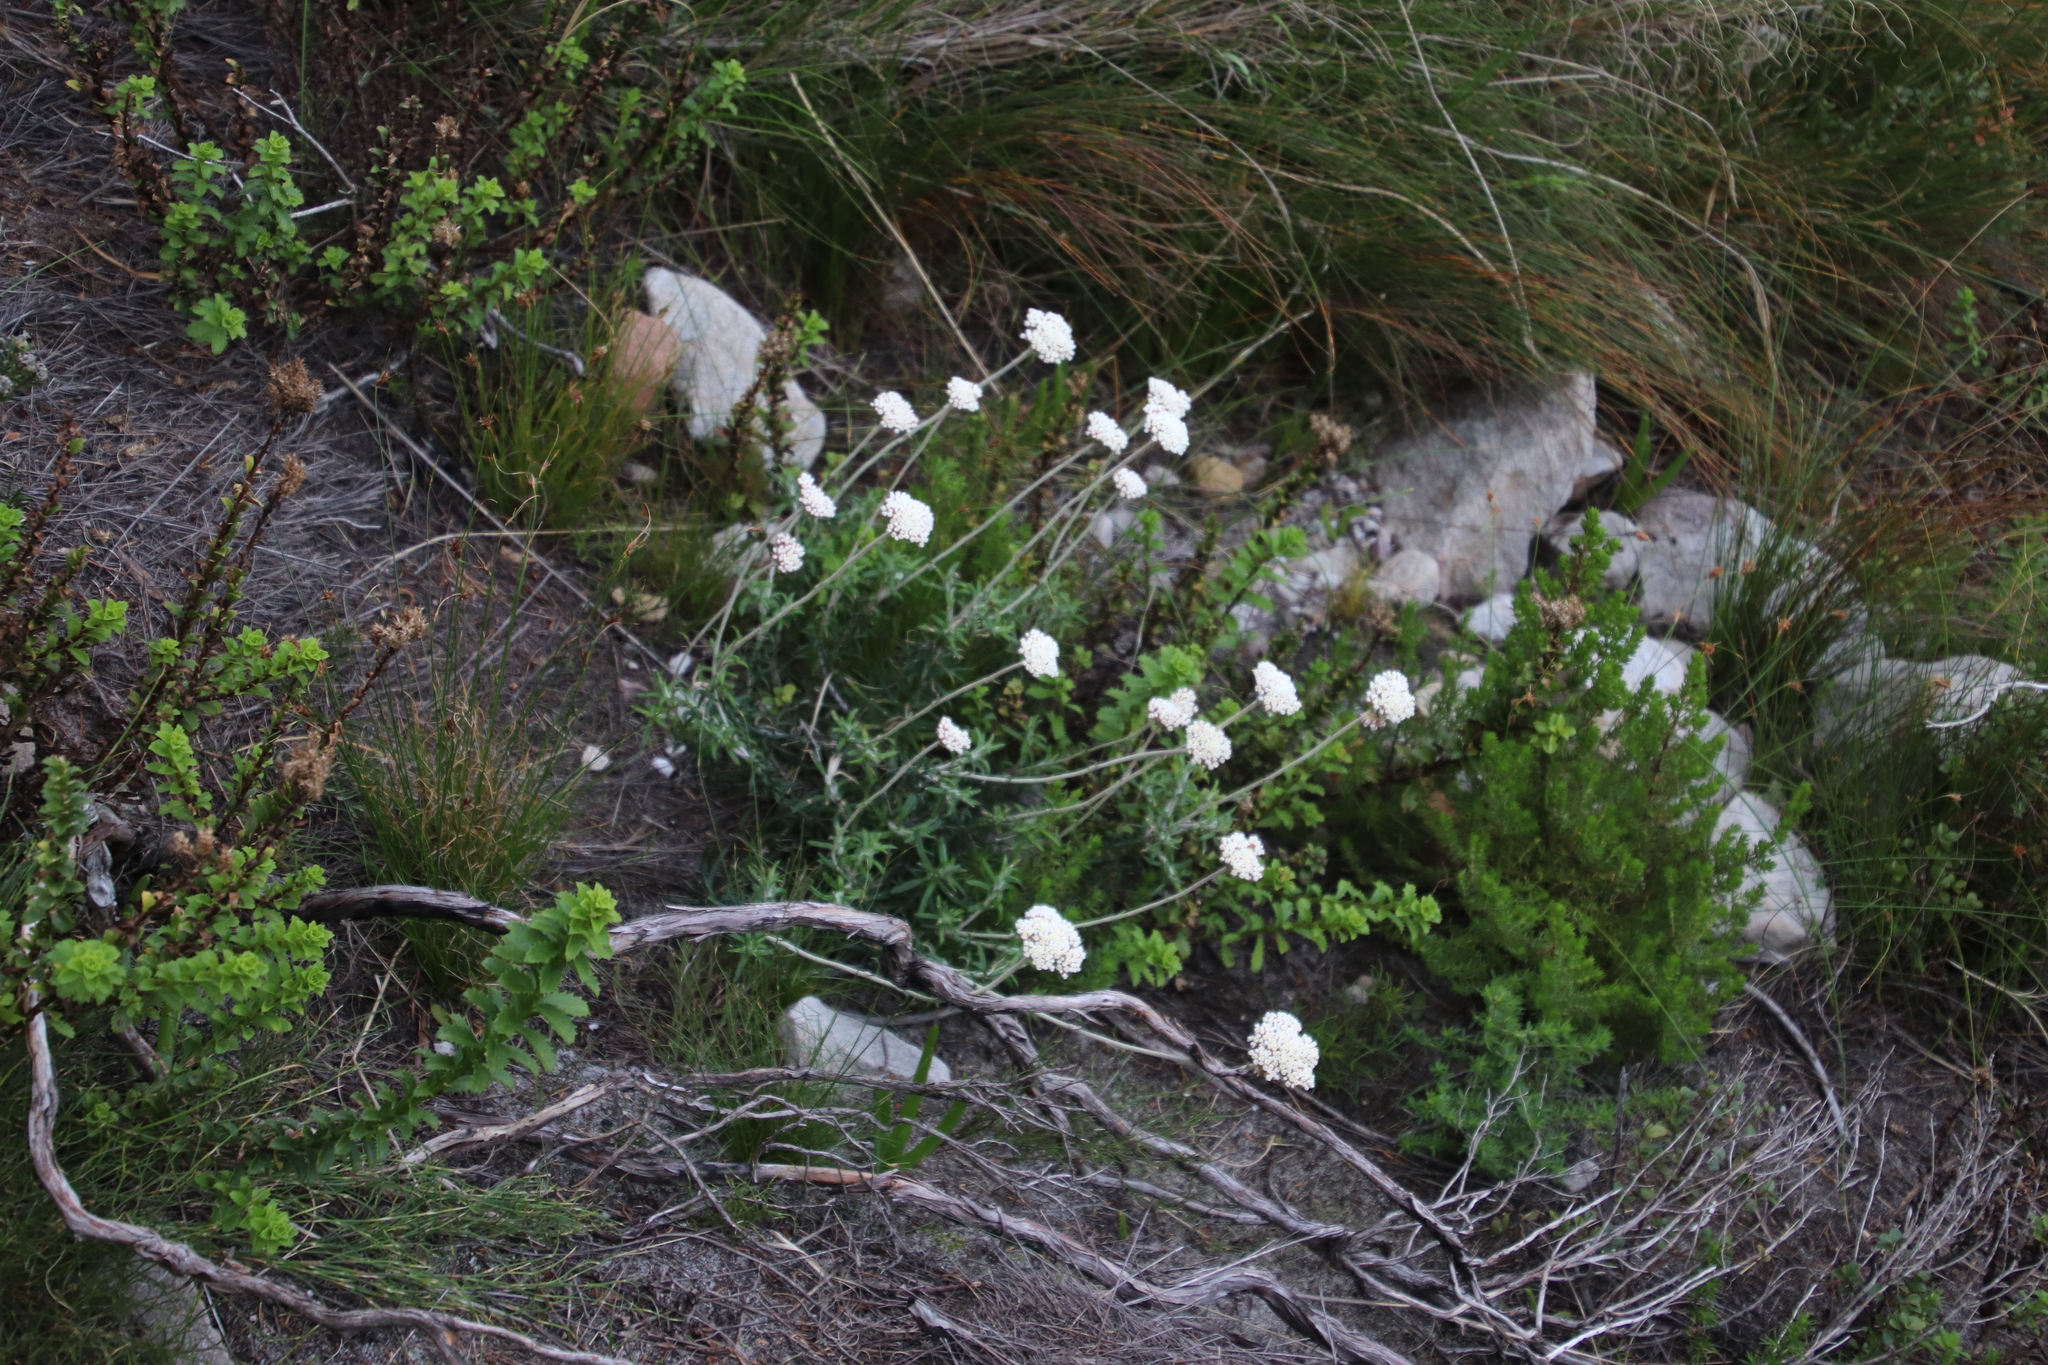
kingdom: Plantae
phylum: Tracheophyta
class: Magnoliopsida
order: Asterales
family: Asteraceae
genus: Anaxeton
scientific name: Anaxeton arborescens
